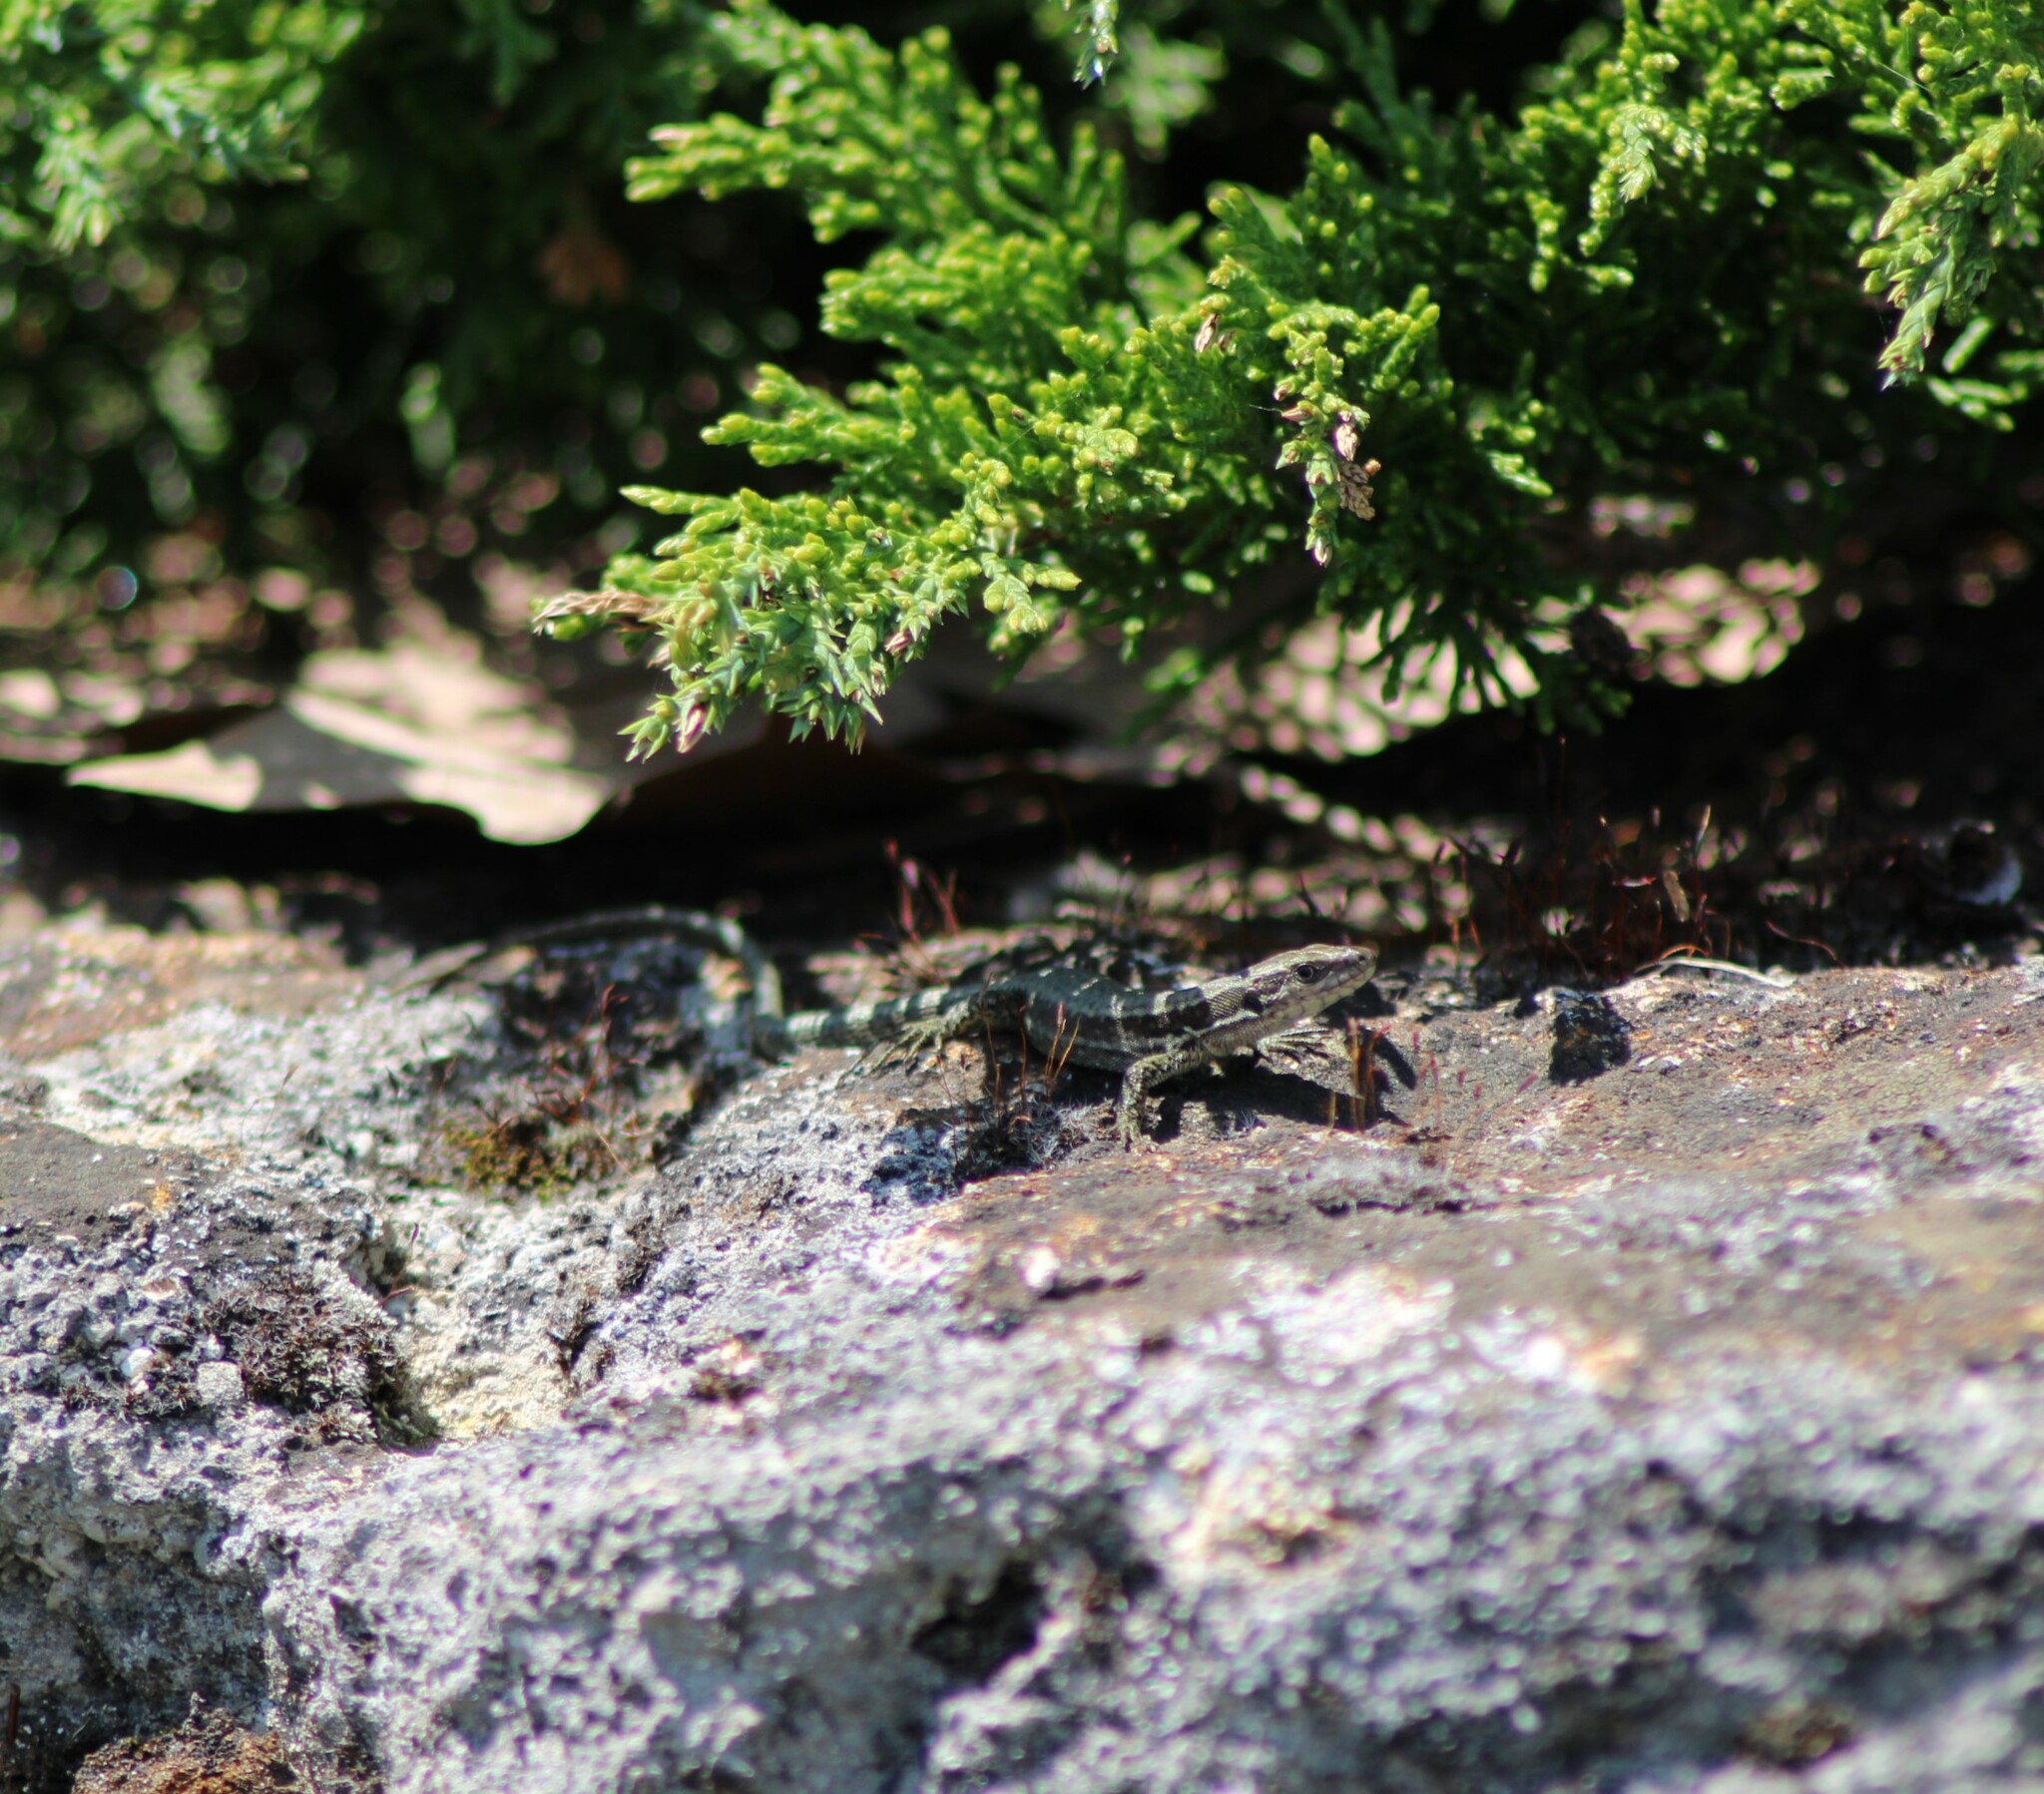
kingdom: Animalia
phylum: Chordata
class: Squamata
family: Lacertidae
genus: Podarcis
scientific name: Podarcis muralis
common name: Common wall lizard
